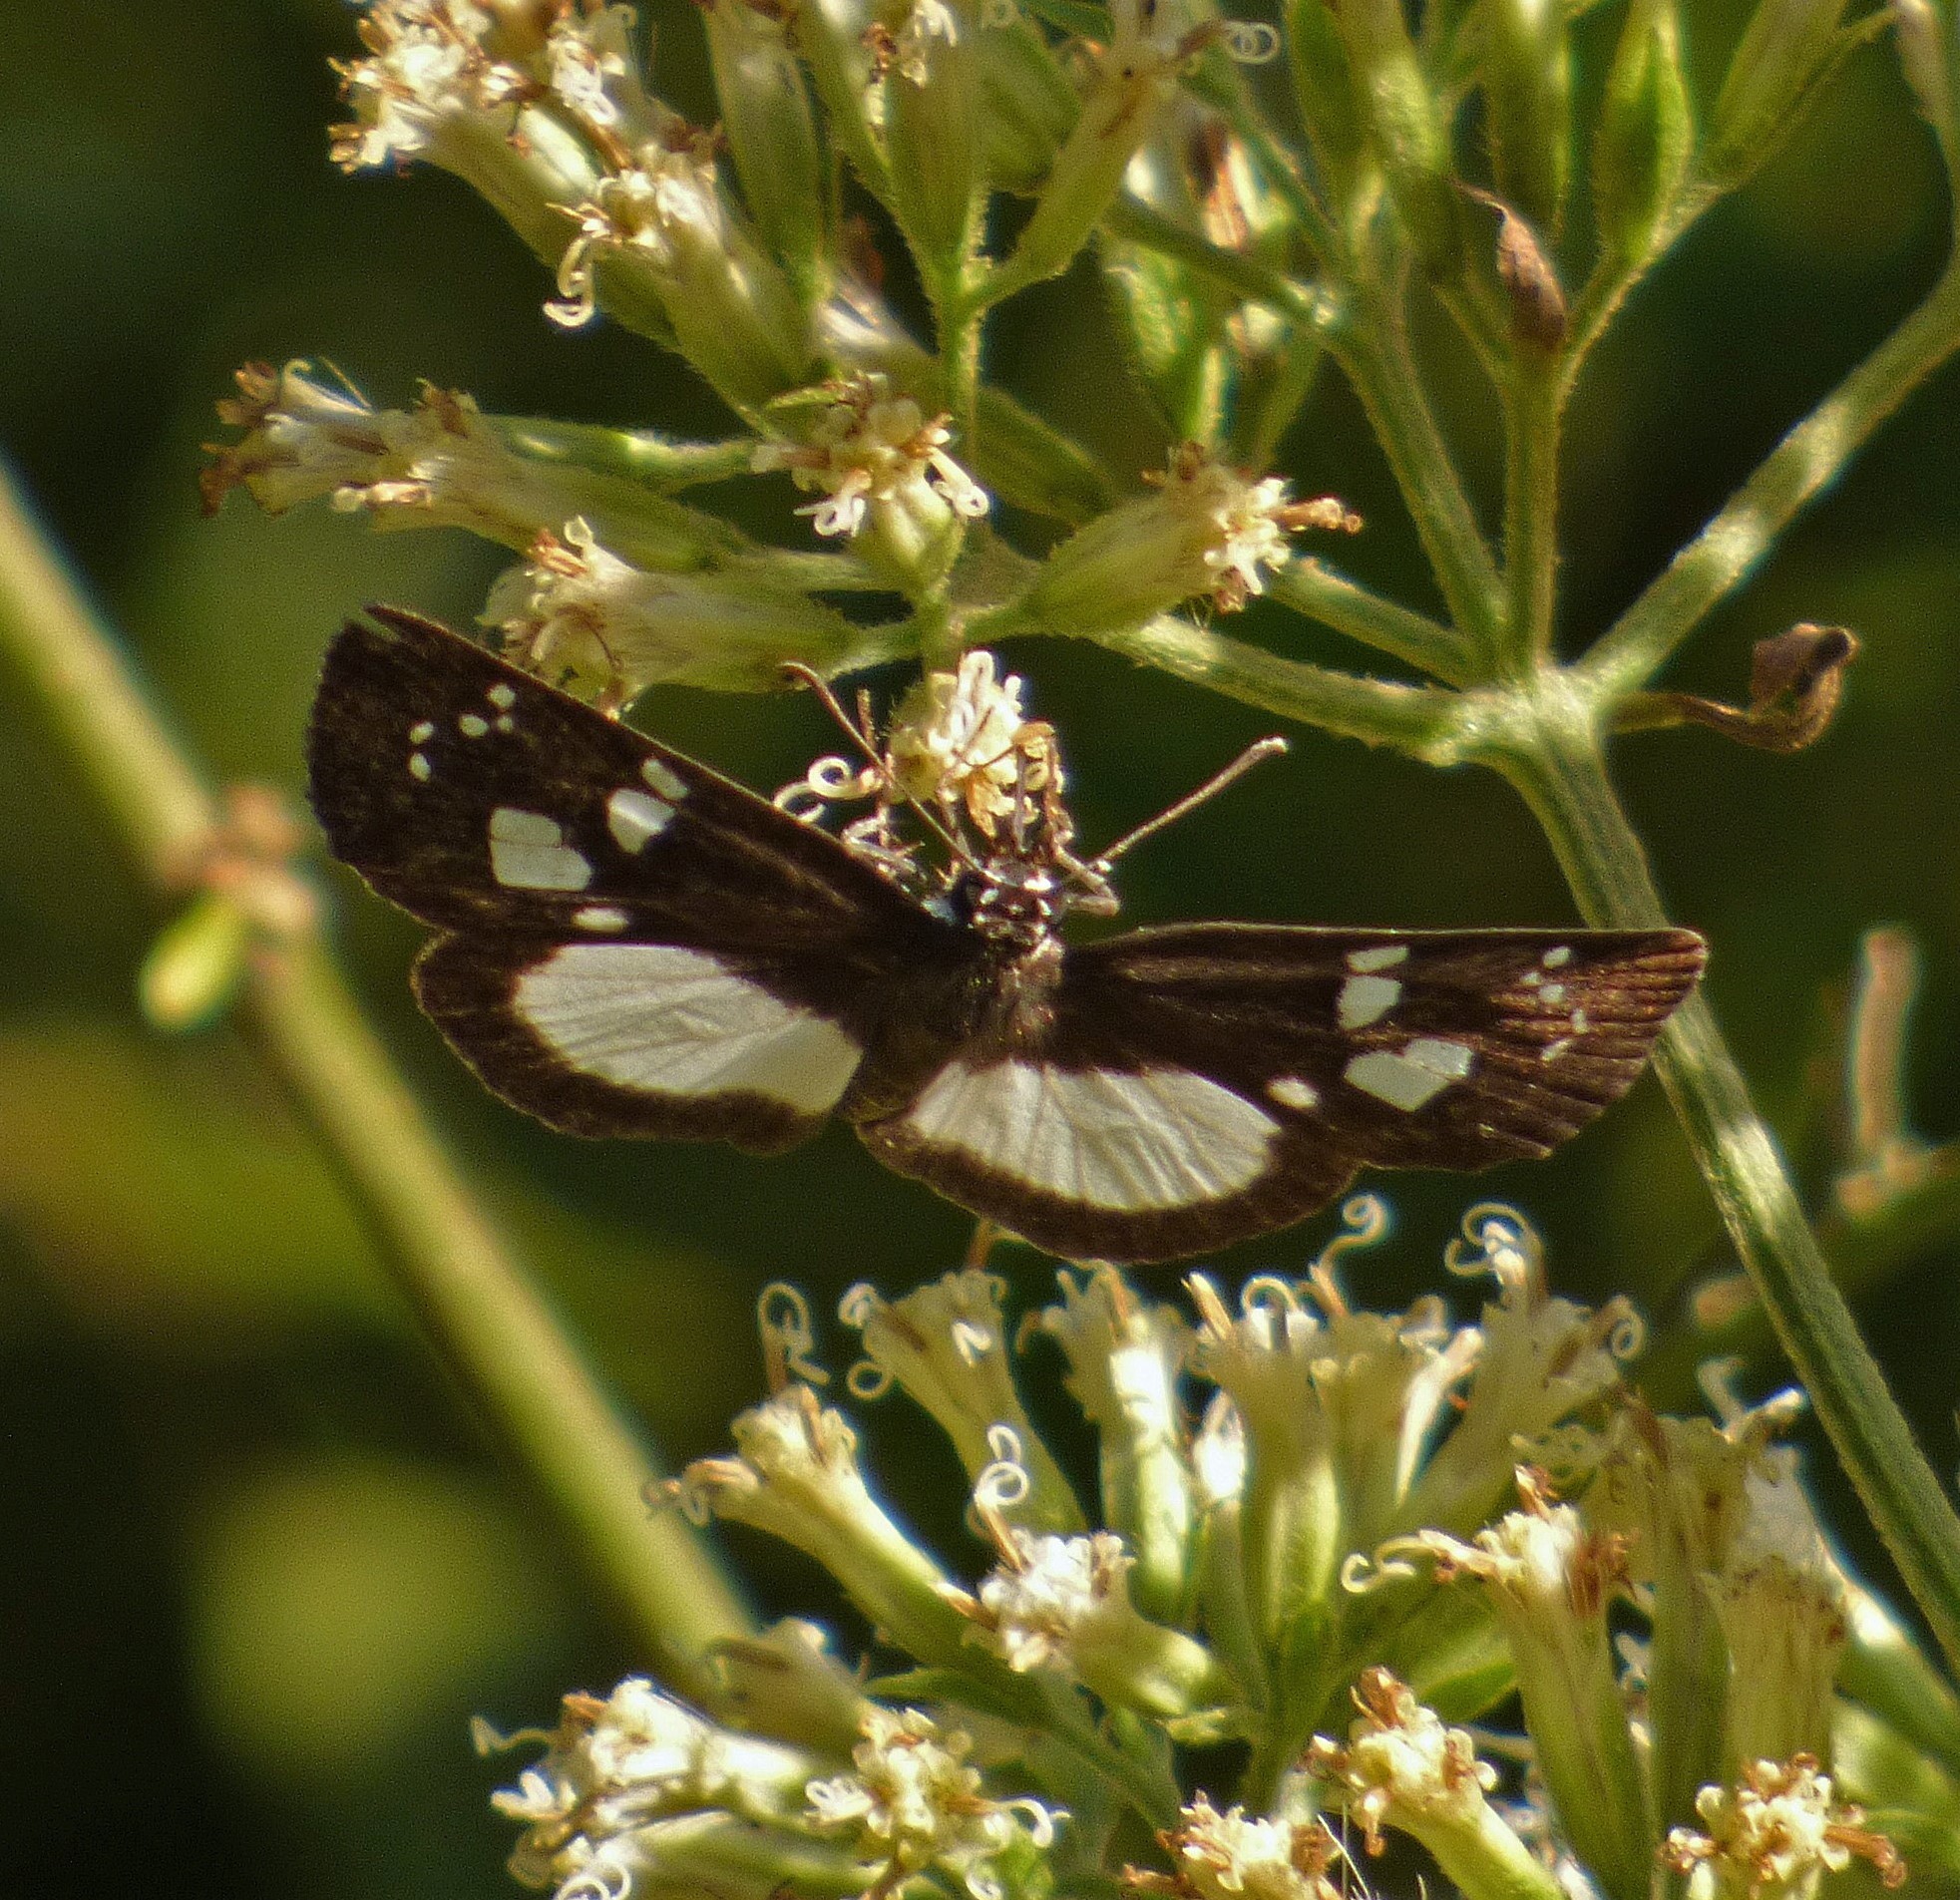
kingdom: Animalia
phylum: Arthropoda
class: Insecta
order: Lepidoptera
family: Hesperiidae
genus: Milanion
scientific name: Milanion leucaspis
